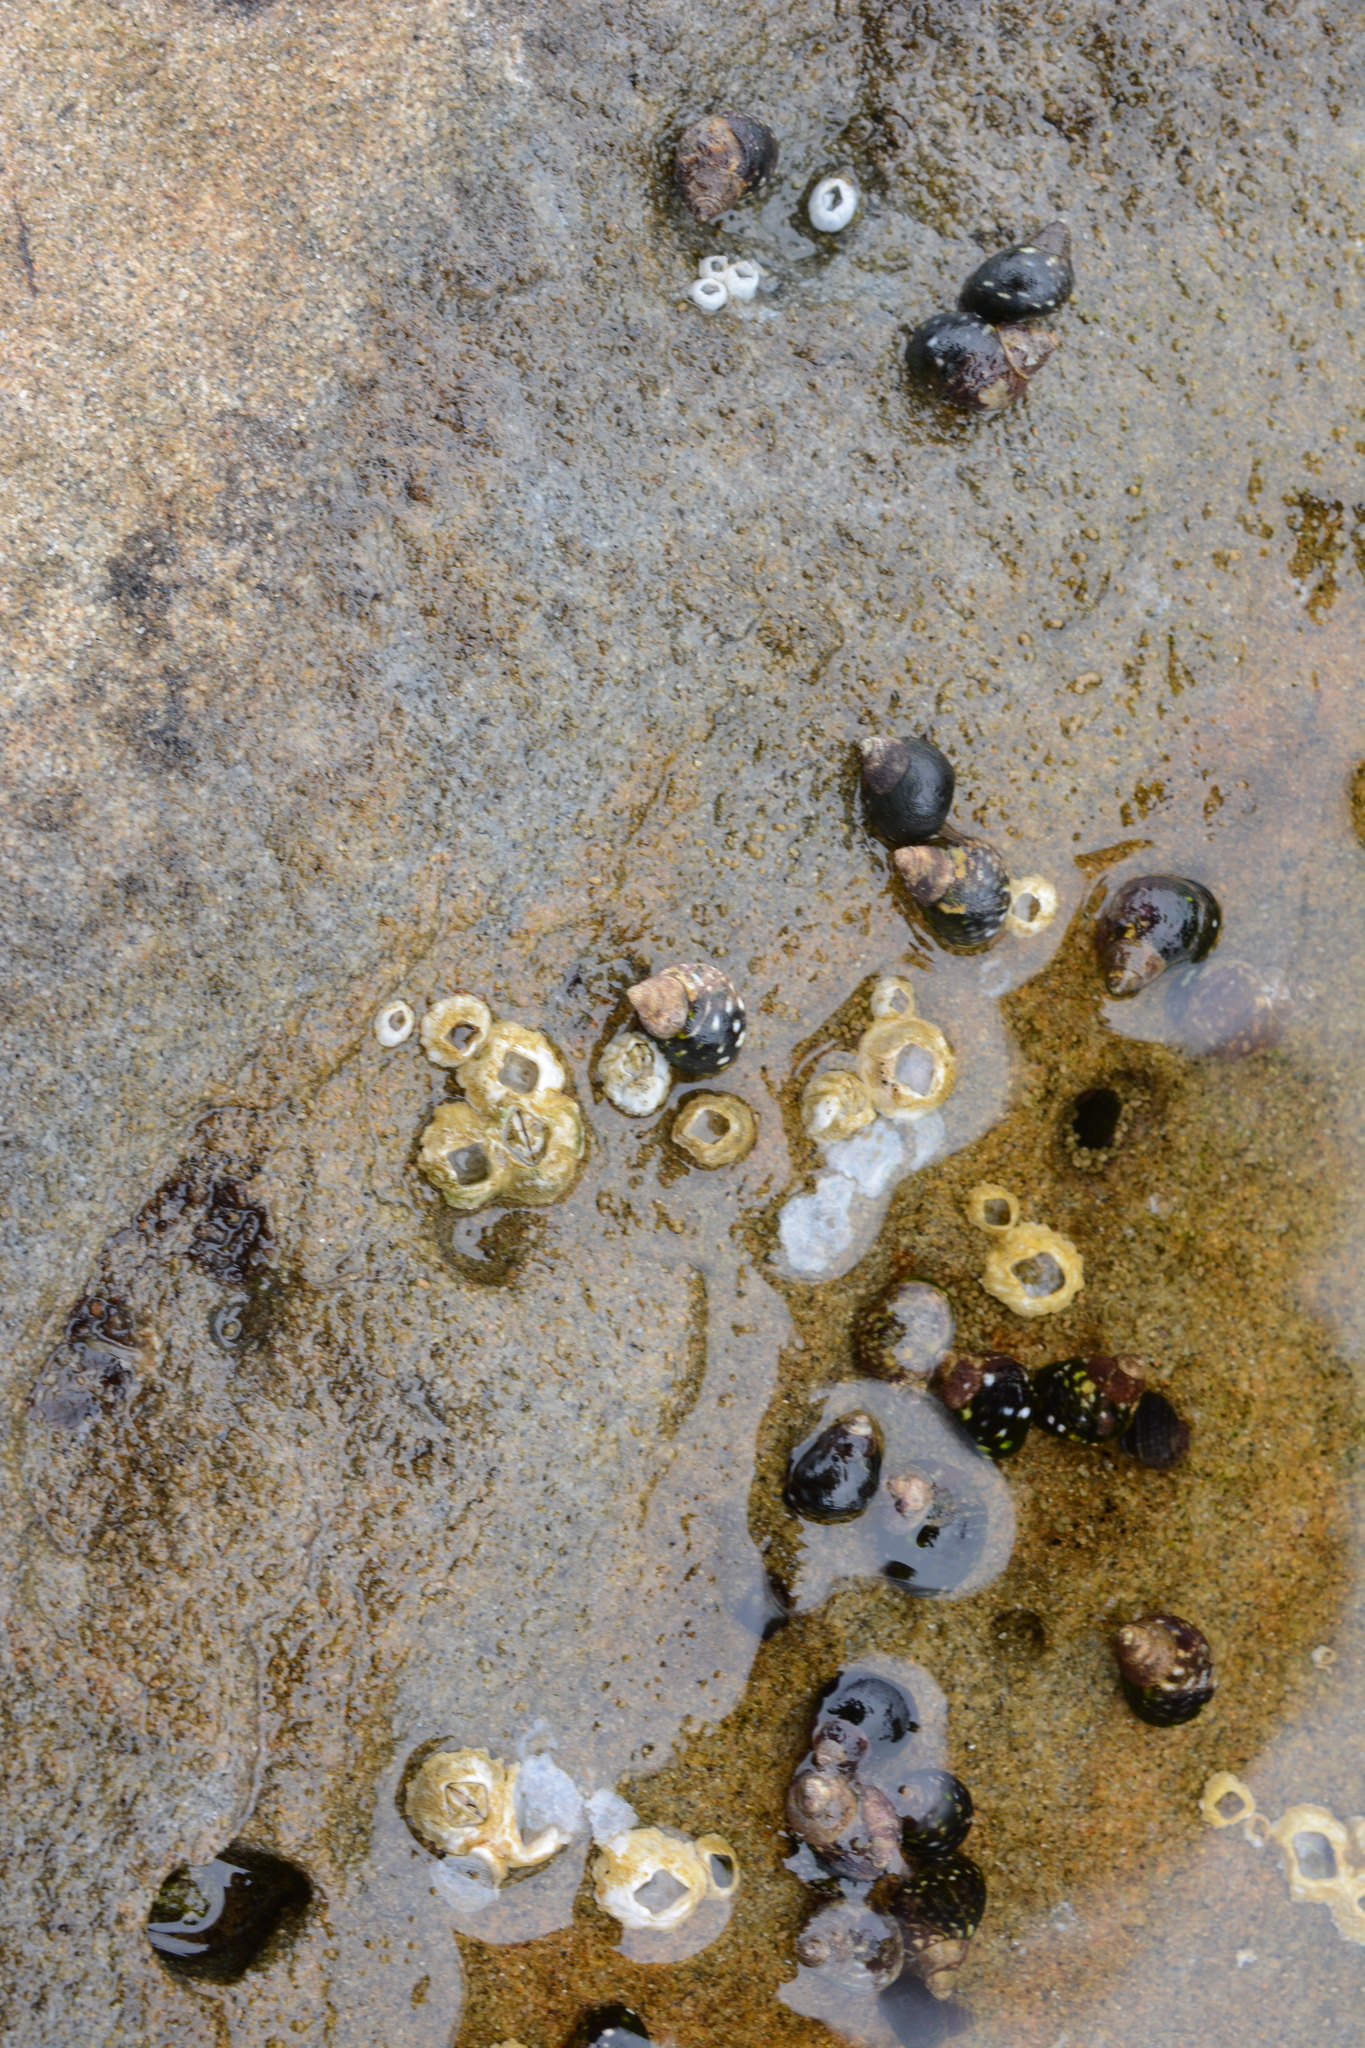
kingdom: Animalia
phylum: Mollusca
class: Gastropoda
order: Littorinimorpha
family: Littorinidae
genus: Littorina
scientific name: Littorina scutulata
